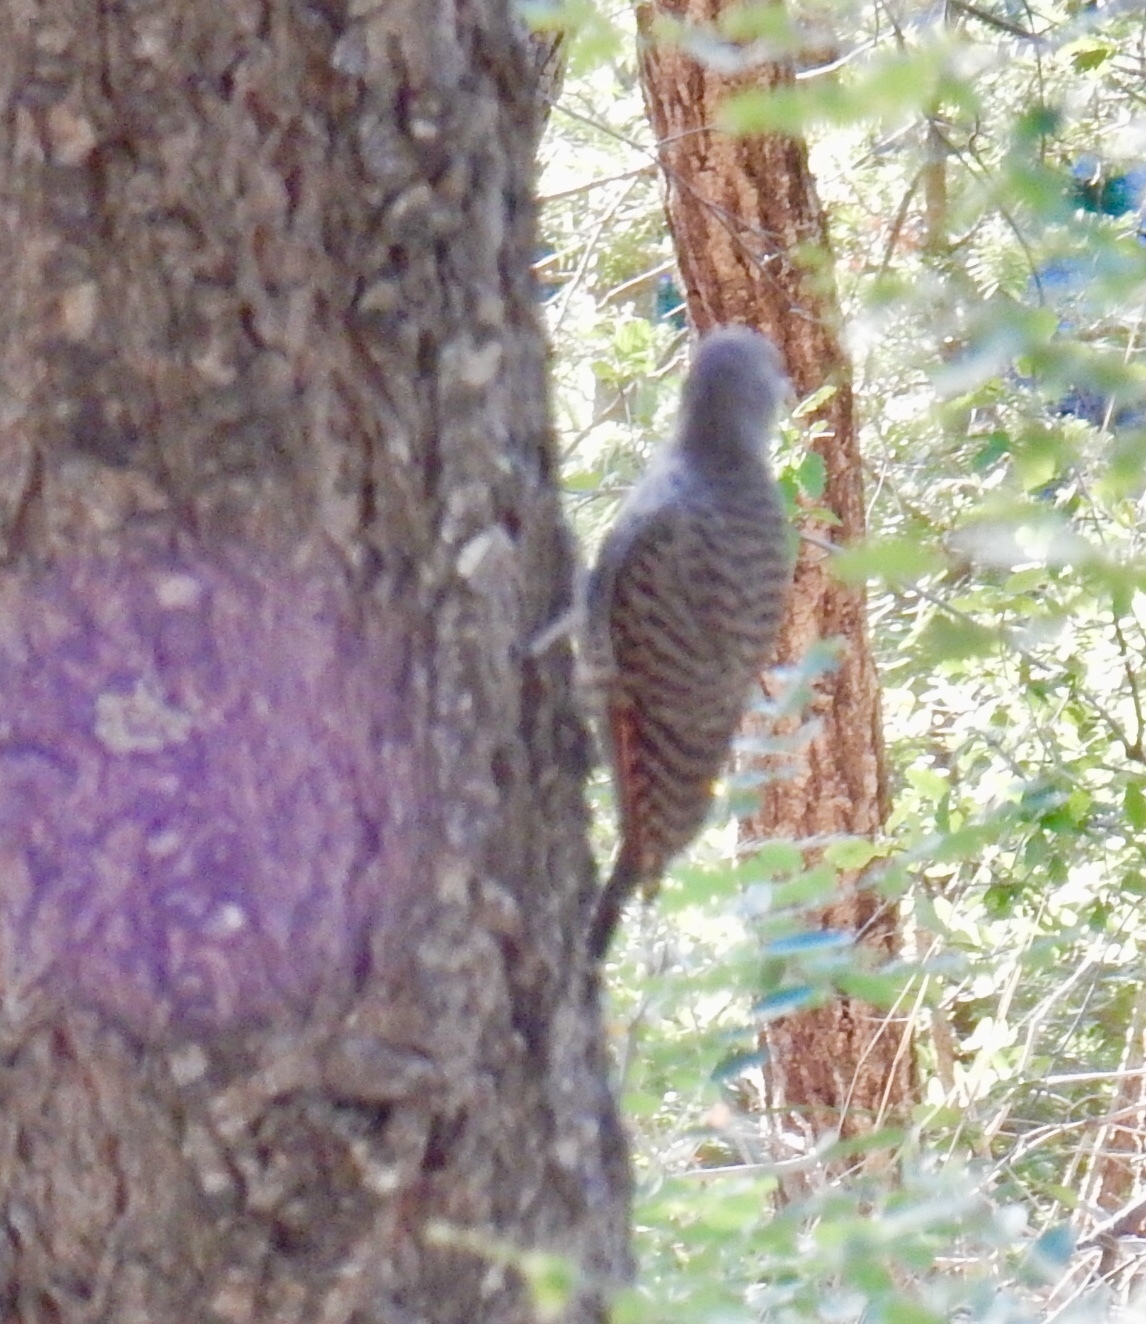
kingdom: Animalia
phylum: Chordata
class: Aves
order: Piciformes
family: Picidae
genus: Colaptes
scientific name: Colaptes auratus
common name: Northern flicker
